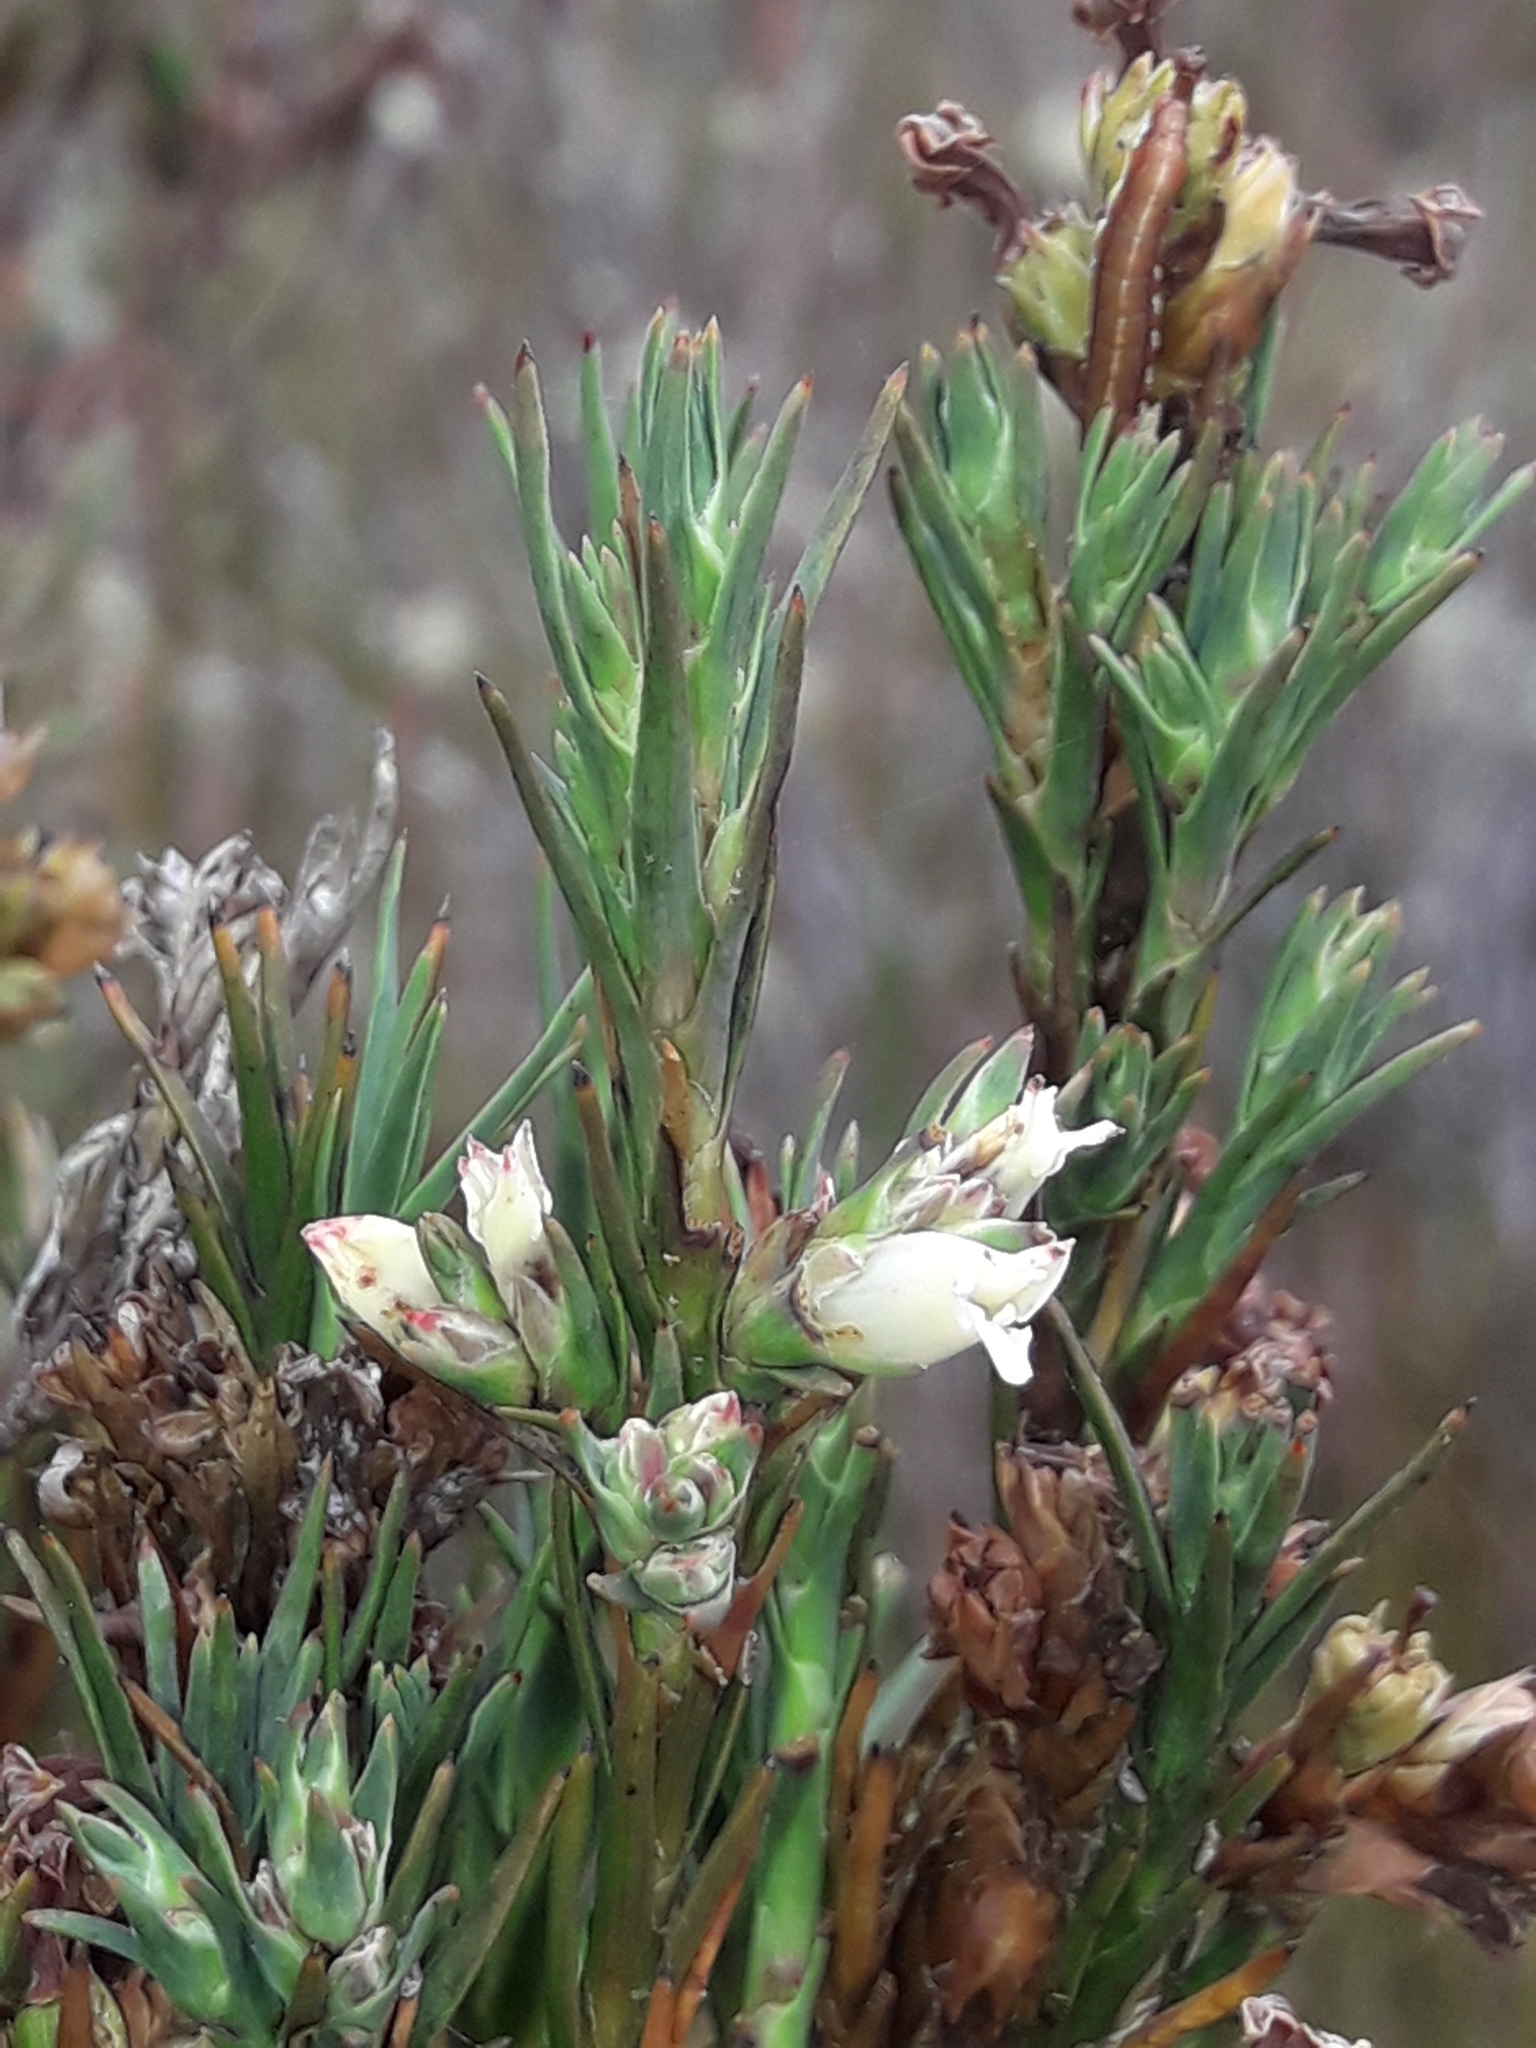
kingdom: Plantae
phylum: Tracheophyta
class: Magnoliopsida
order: Ericales
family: Ericaceae
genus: Dracophyllum
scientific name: Dracophyllum oliveri
